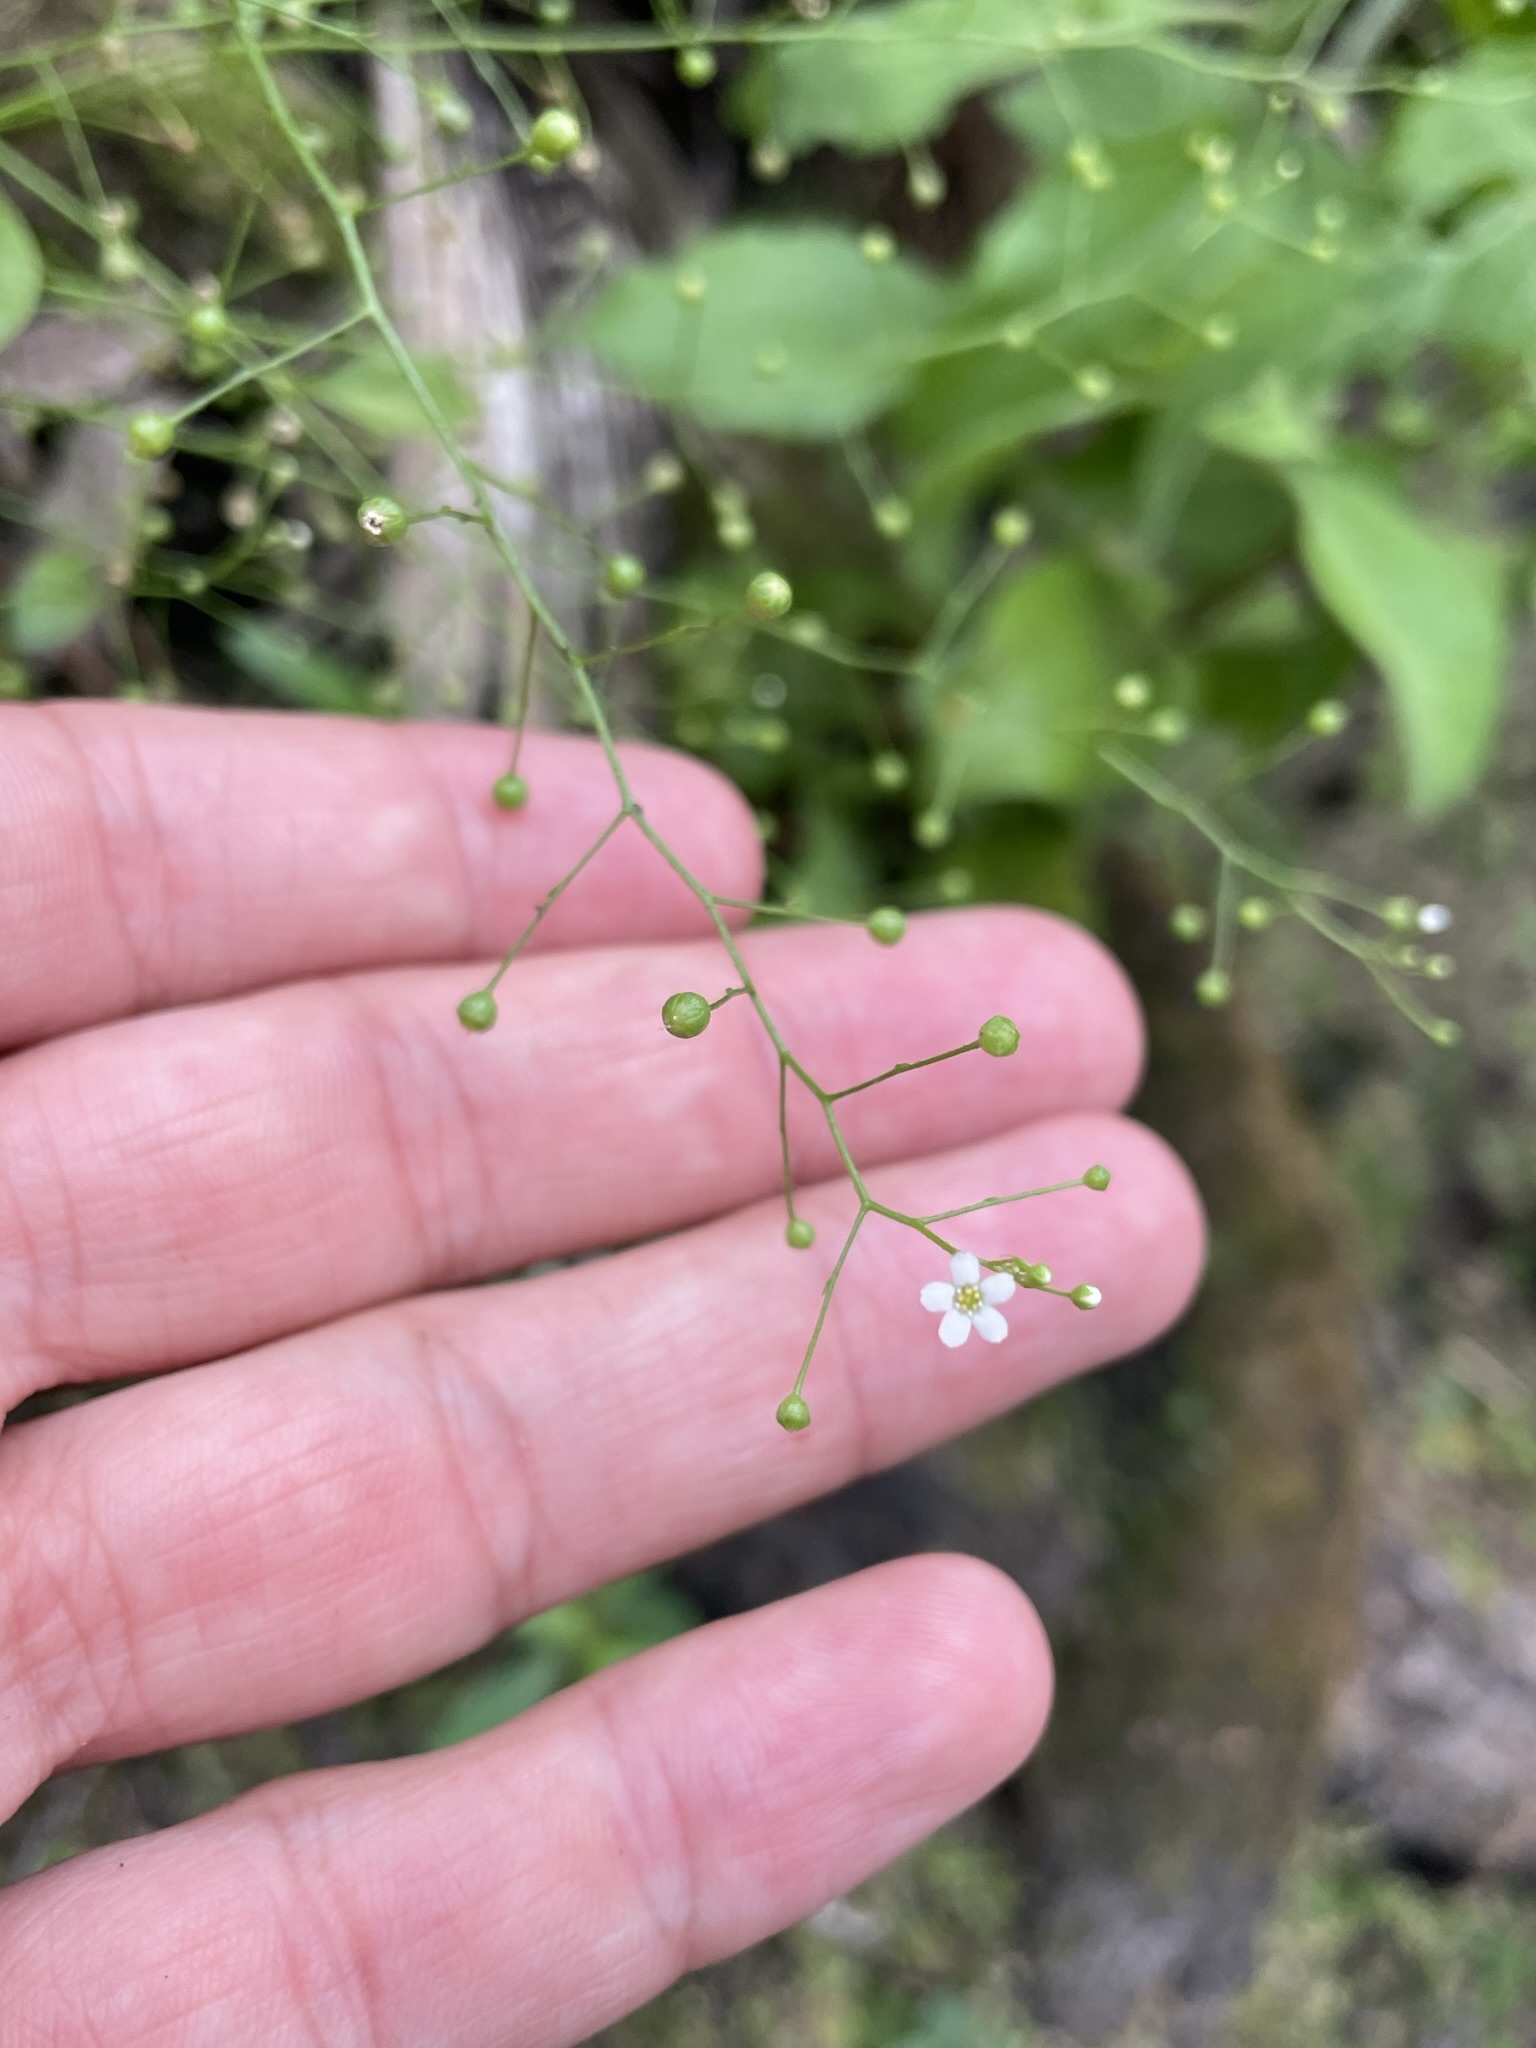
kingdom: Plantae
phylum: Tracheophyta
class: Magnoliopsida
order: Ericales
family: Primulaceae
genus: Samolus
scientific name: Samolus parviflorus
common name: False water pimpernel
